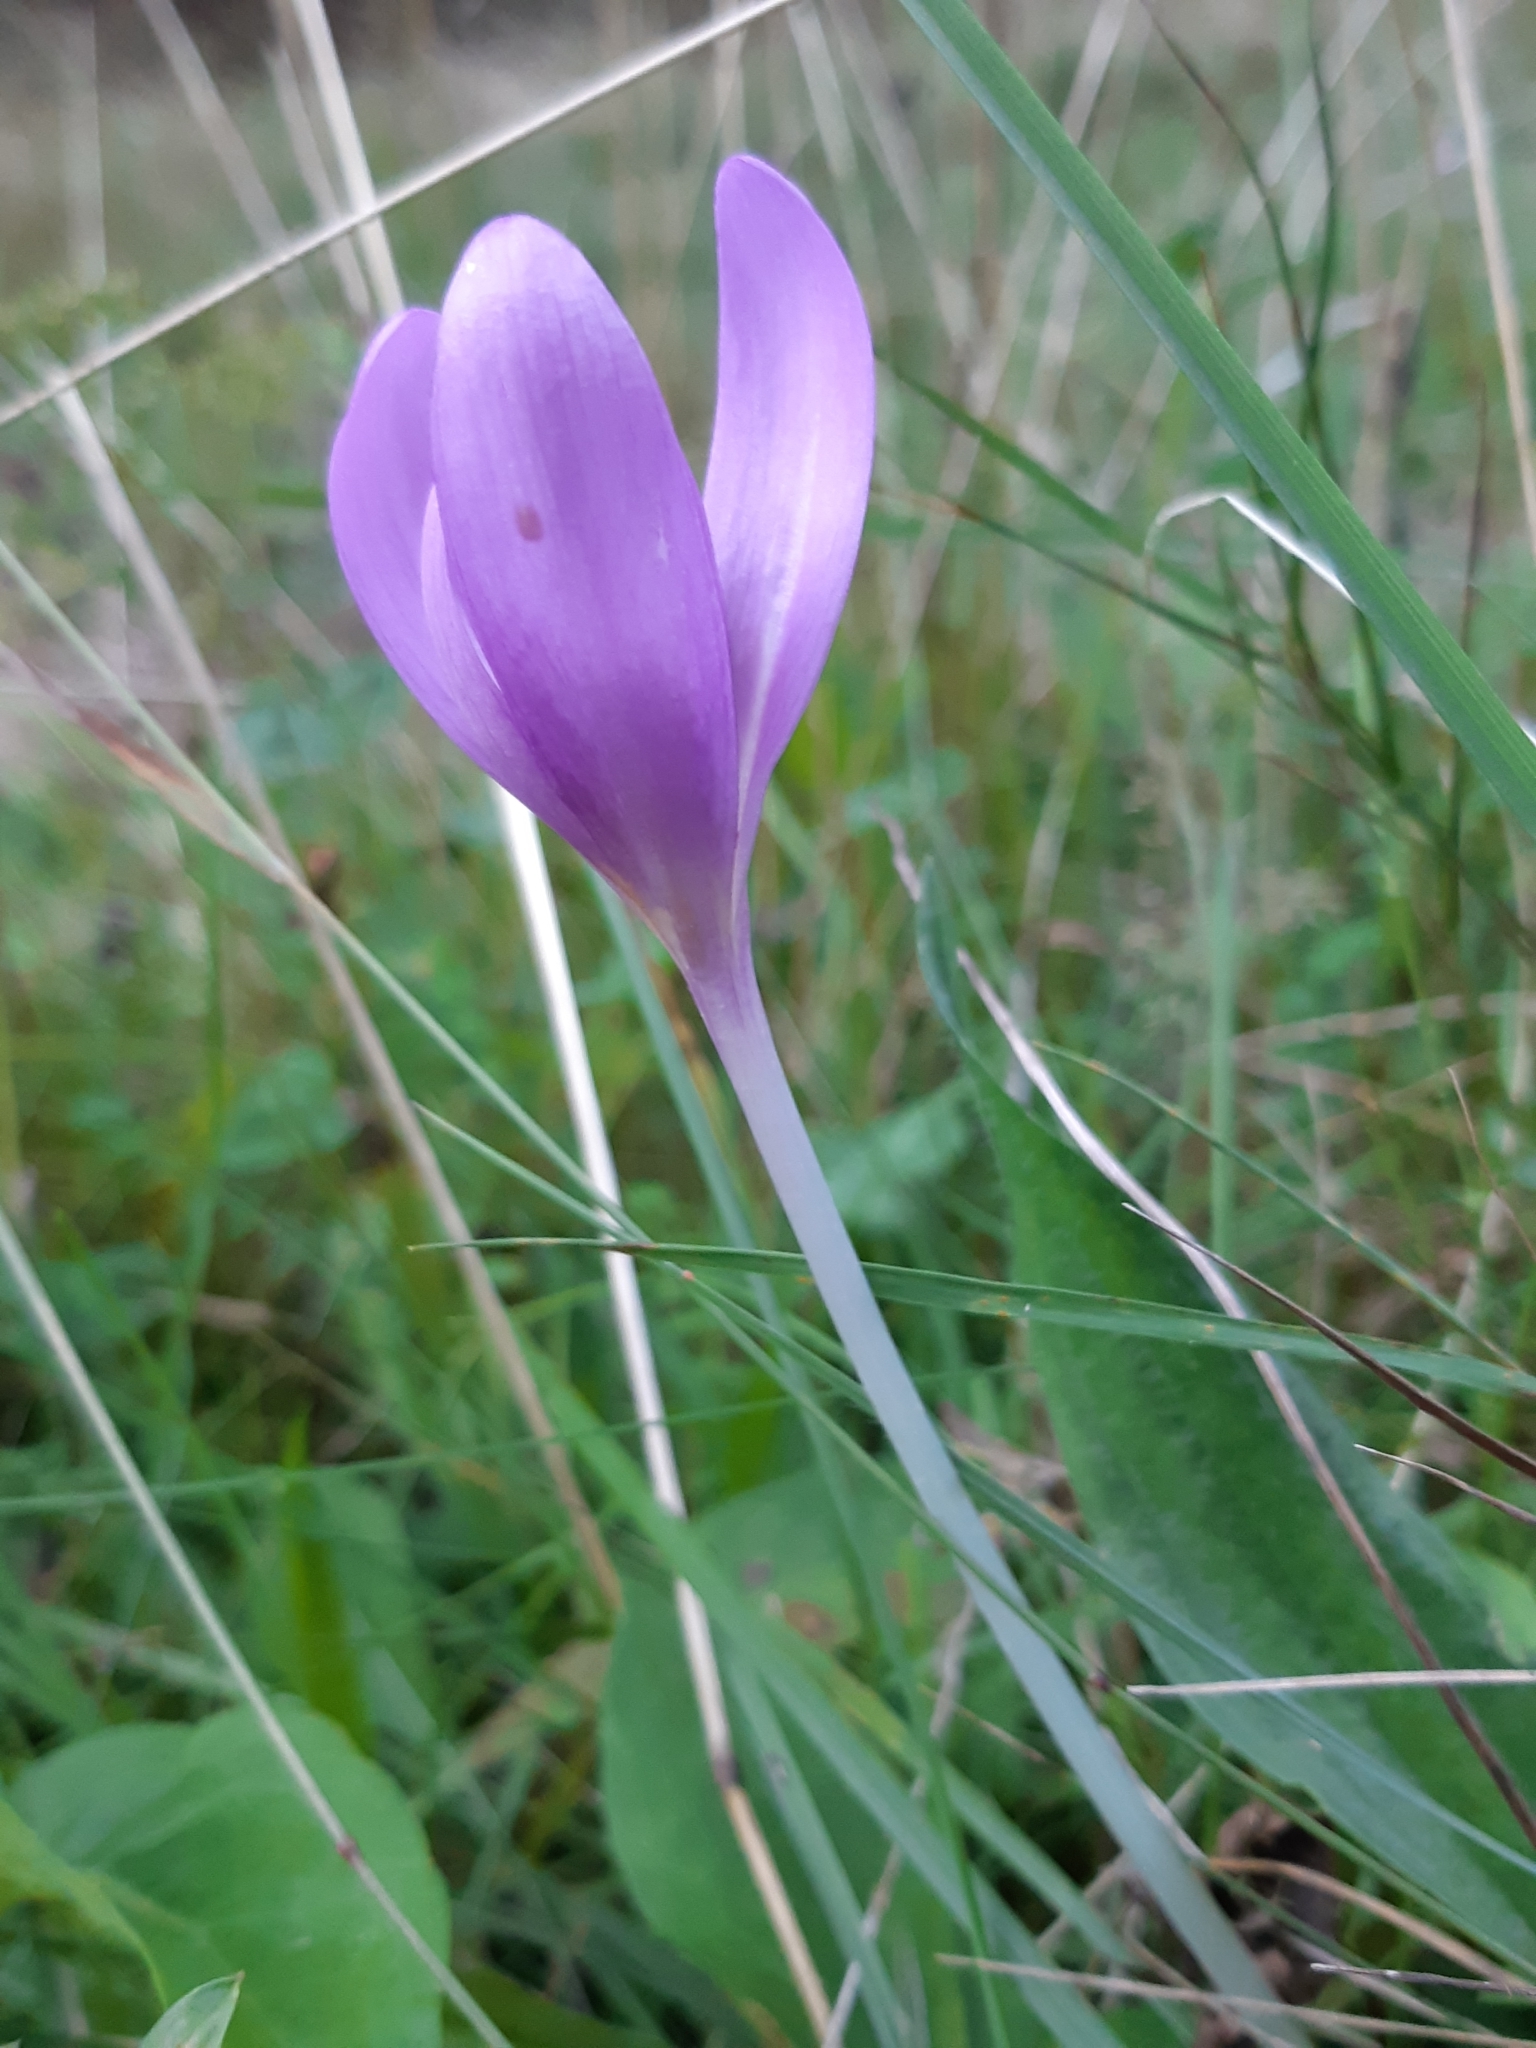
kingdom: Plantae
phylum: Tracheophyta
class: Liliopsida
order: Liliales
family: Colchicaceae
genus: Colchicum
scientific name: Colchicum autumnale
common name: Autumn crocus
